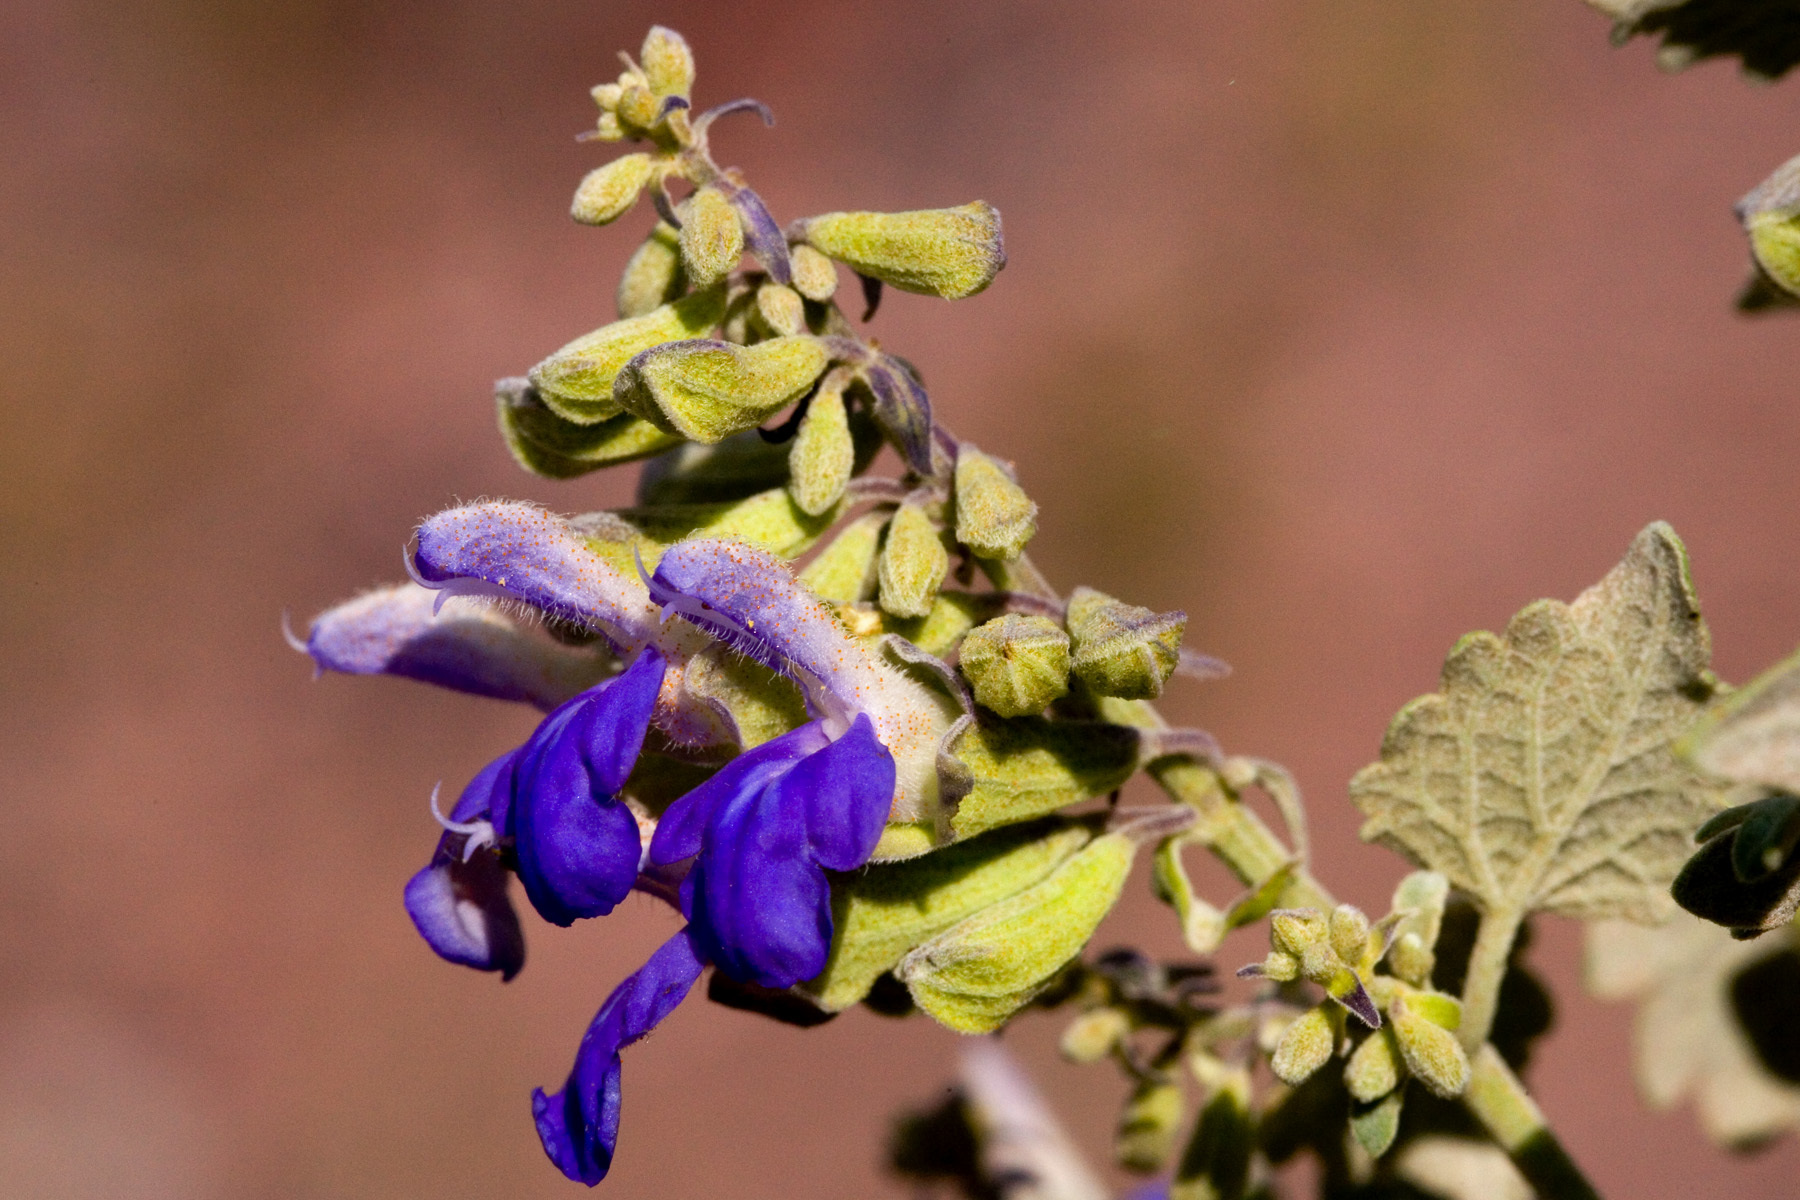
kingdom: Plantae
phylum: Tracheophyta
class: Magnoliopsida
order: Lamiales
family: Lamiaceae
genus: Salvia
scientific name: Salvia pinguifolia
